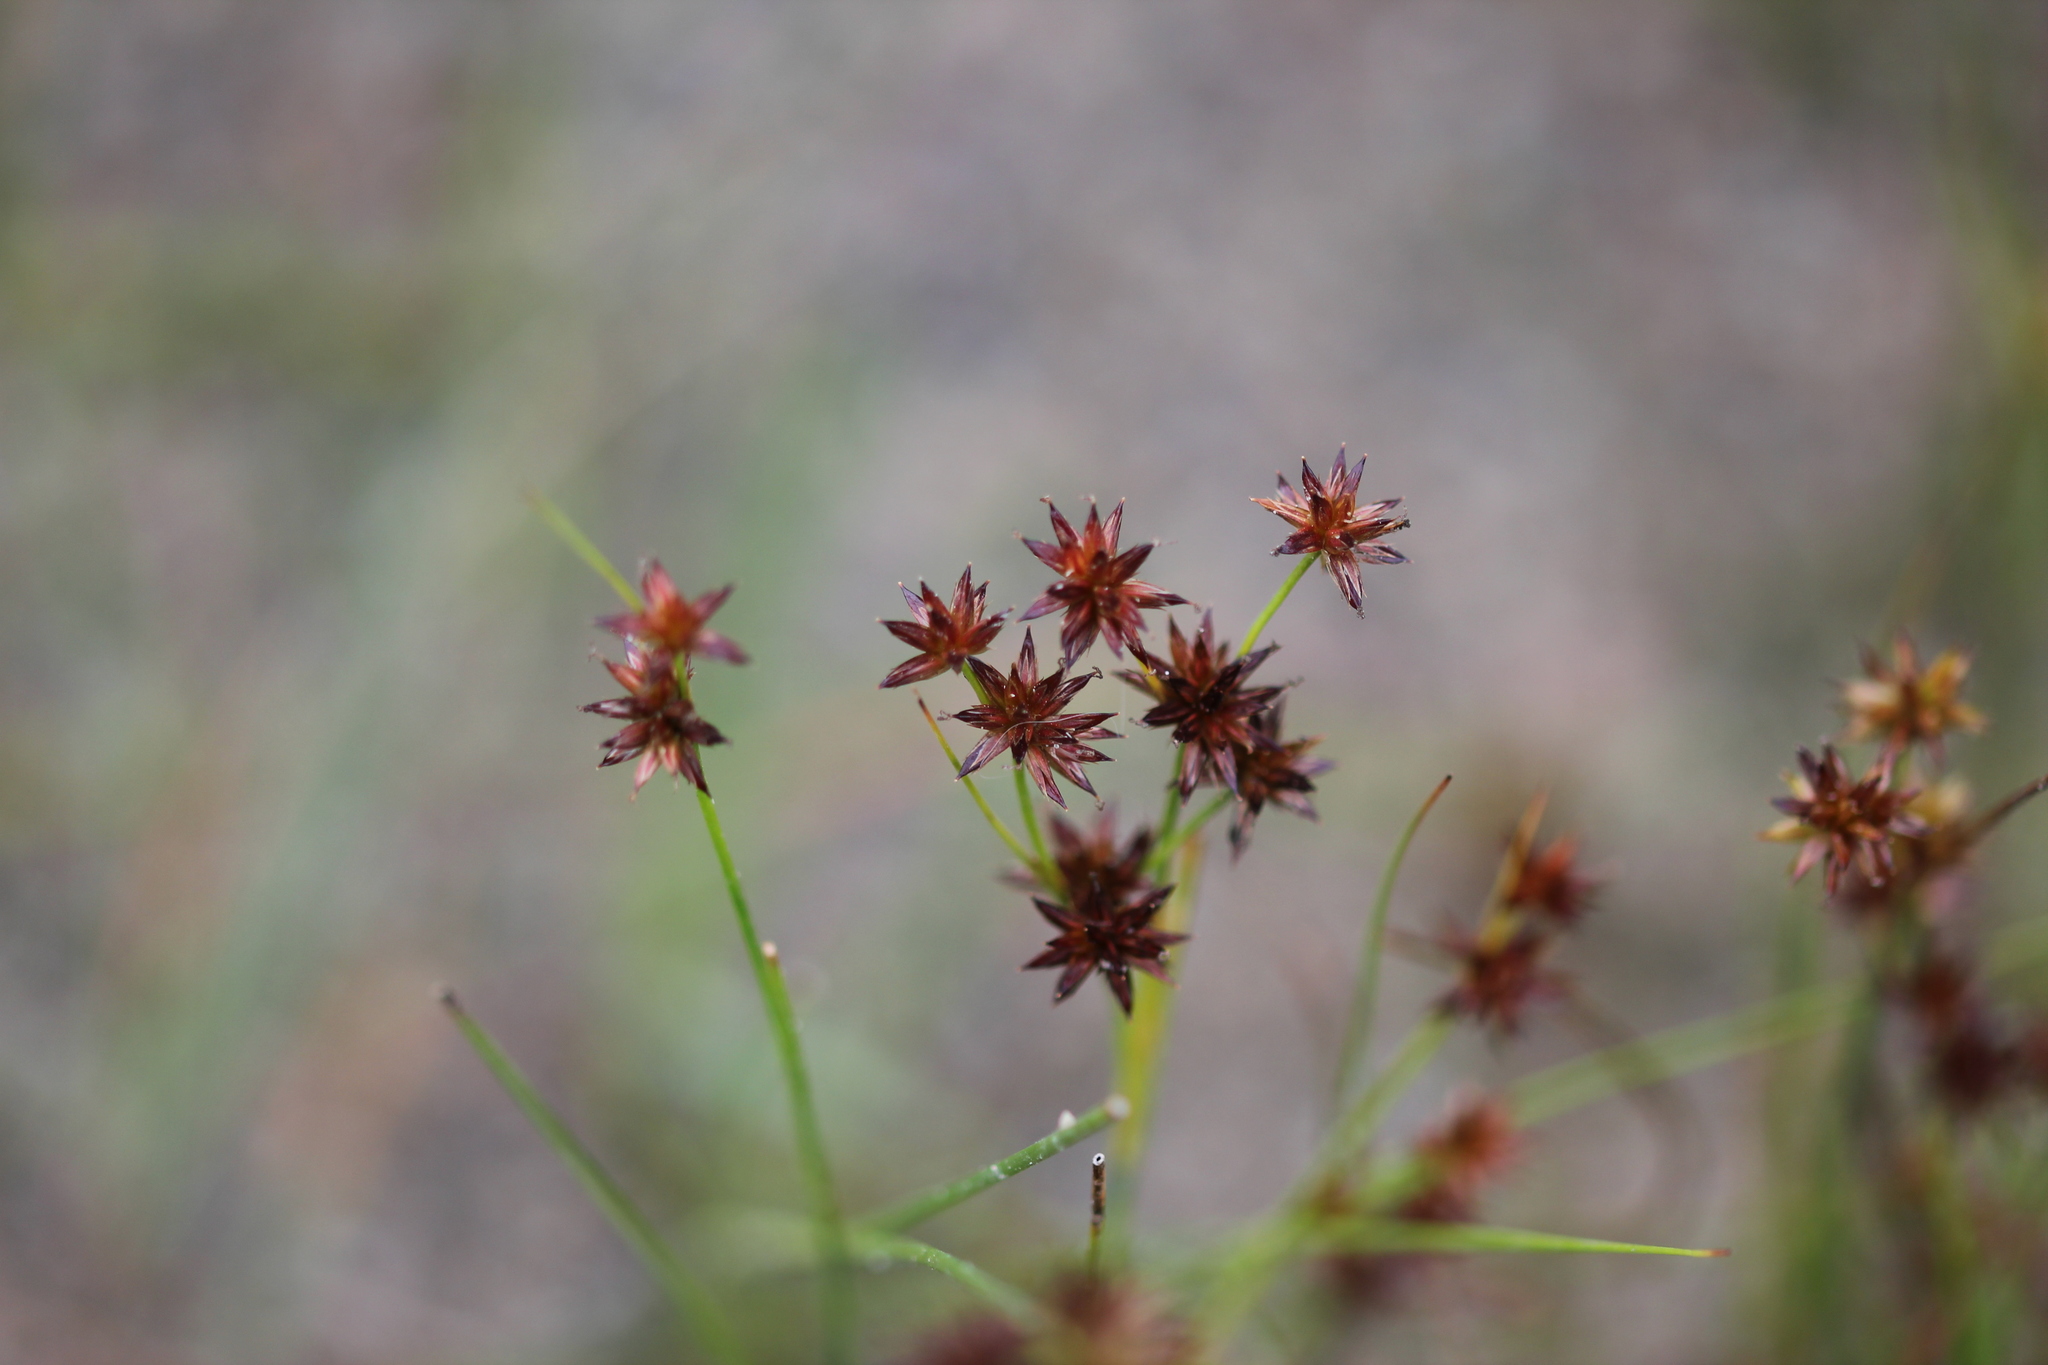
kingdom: Plantae
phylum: Tracheophyta
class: Liliopsida
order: Poales
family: Juncaceae
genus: Juncus
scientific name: Juncus nodosus
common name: Knotted rush
